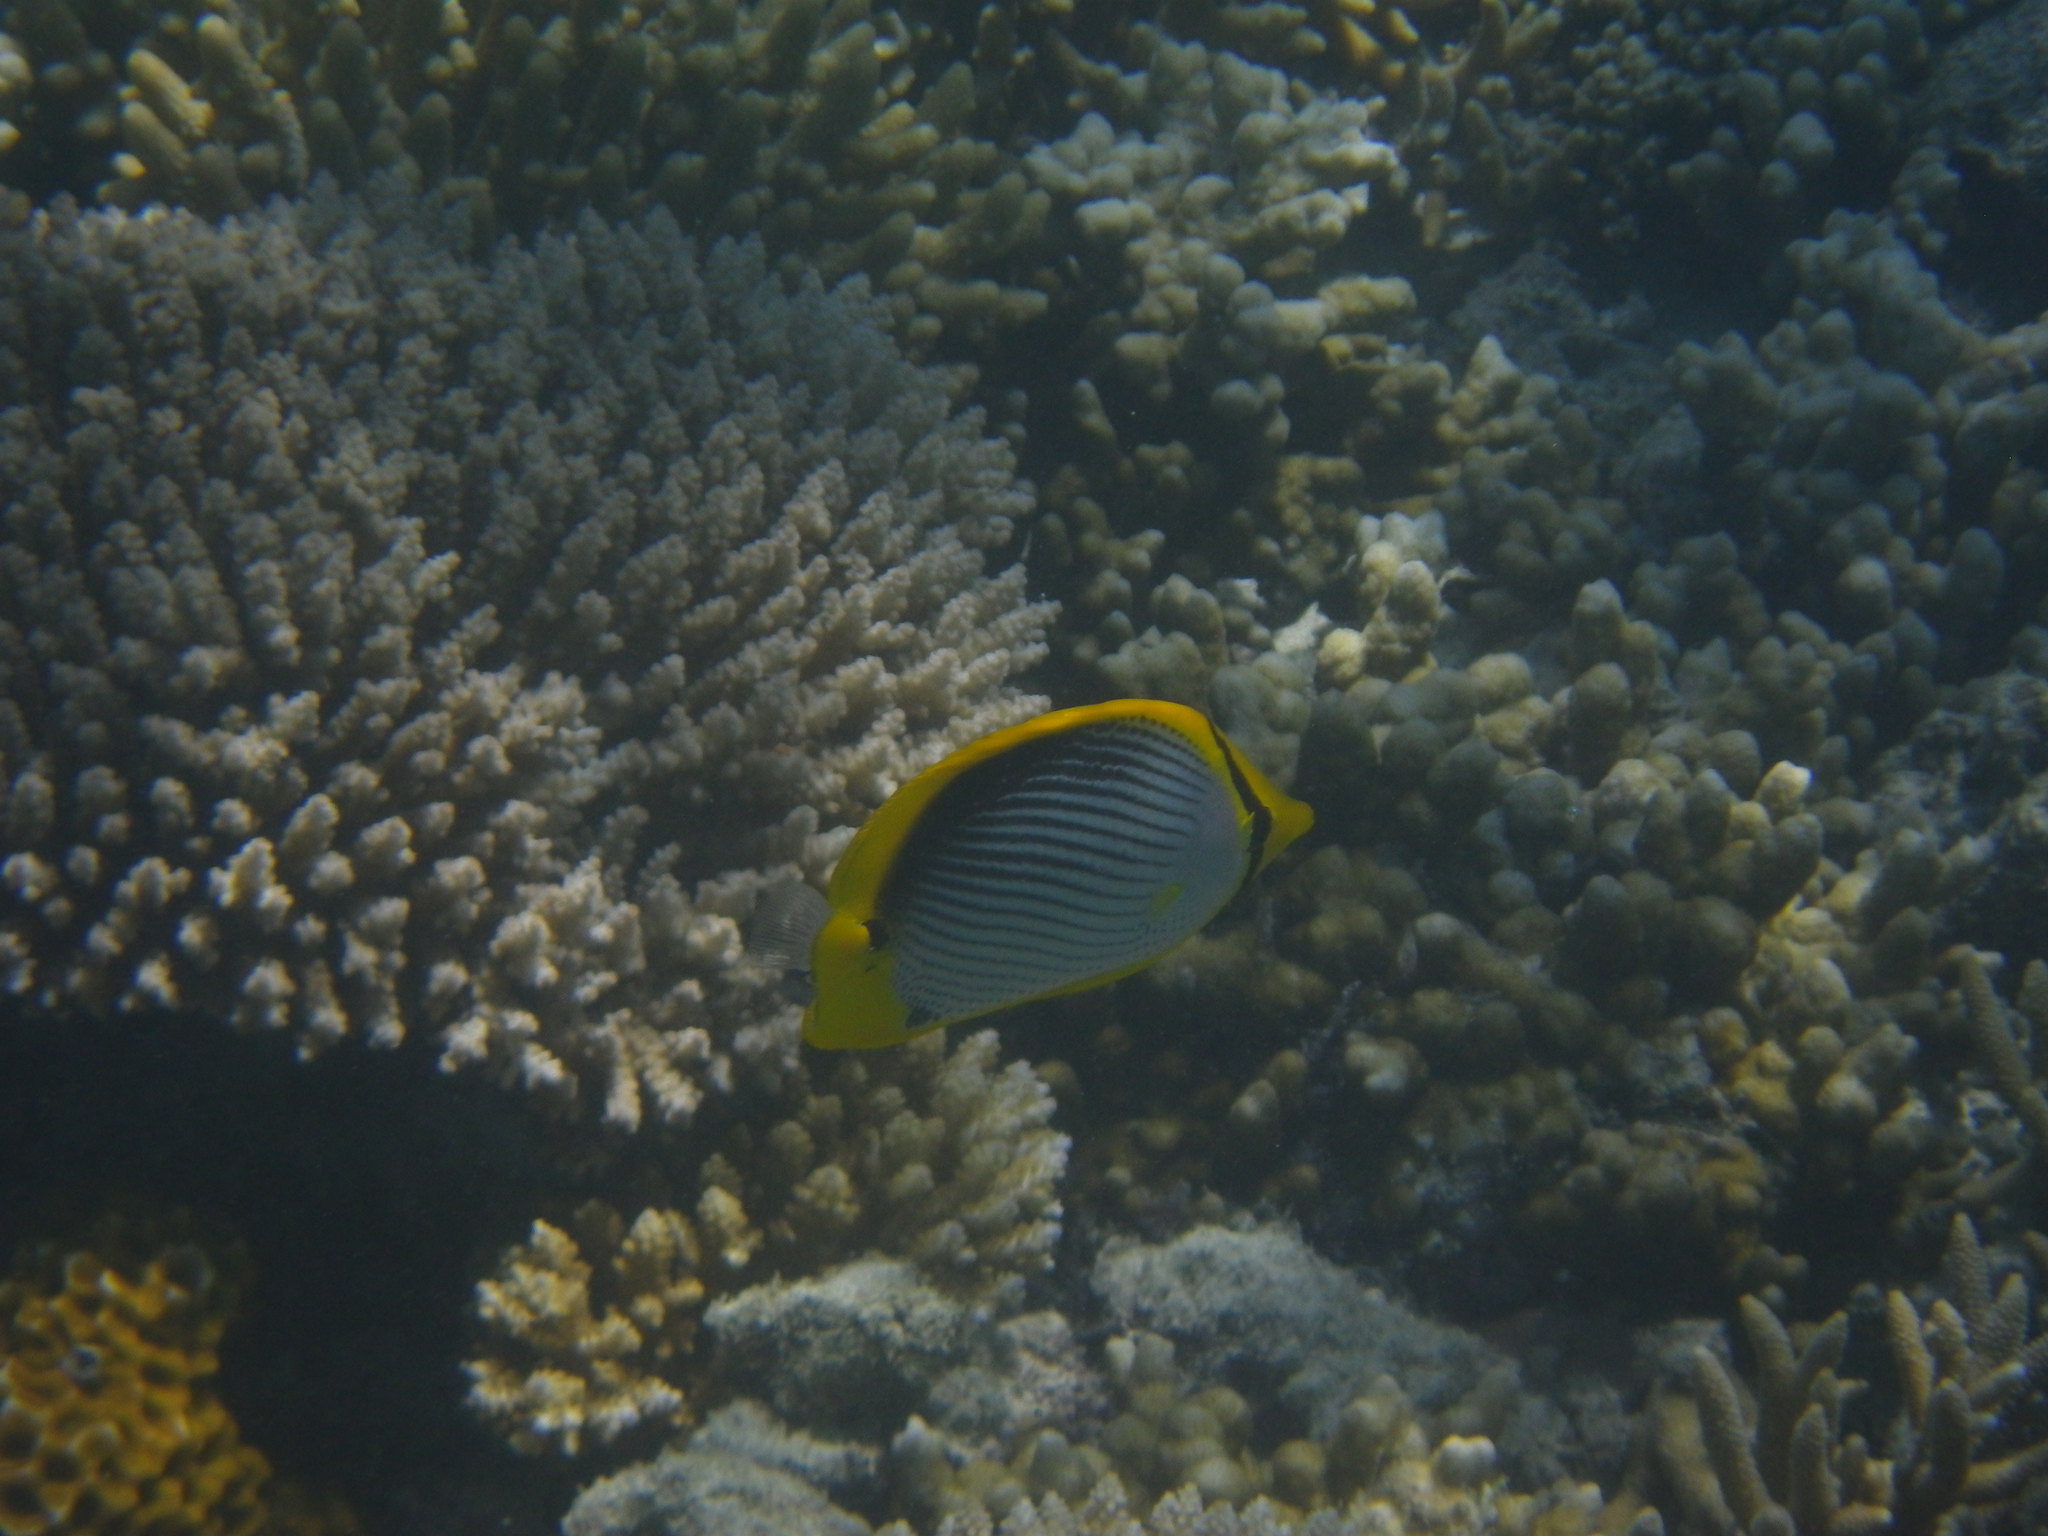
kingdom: Animalia
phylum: Chordata
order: Perciformes
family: Chaetodontidae
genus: Chaetodon
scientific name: Chaetodon melannotus
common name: Blackback butterflyfish
